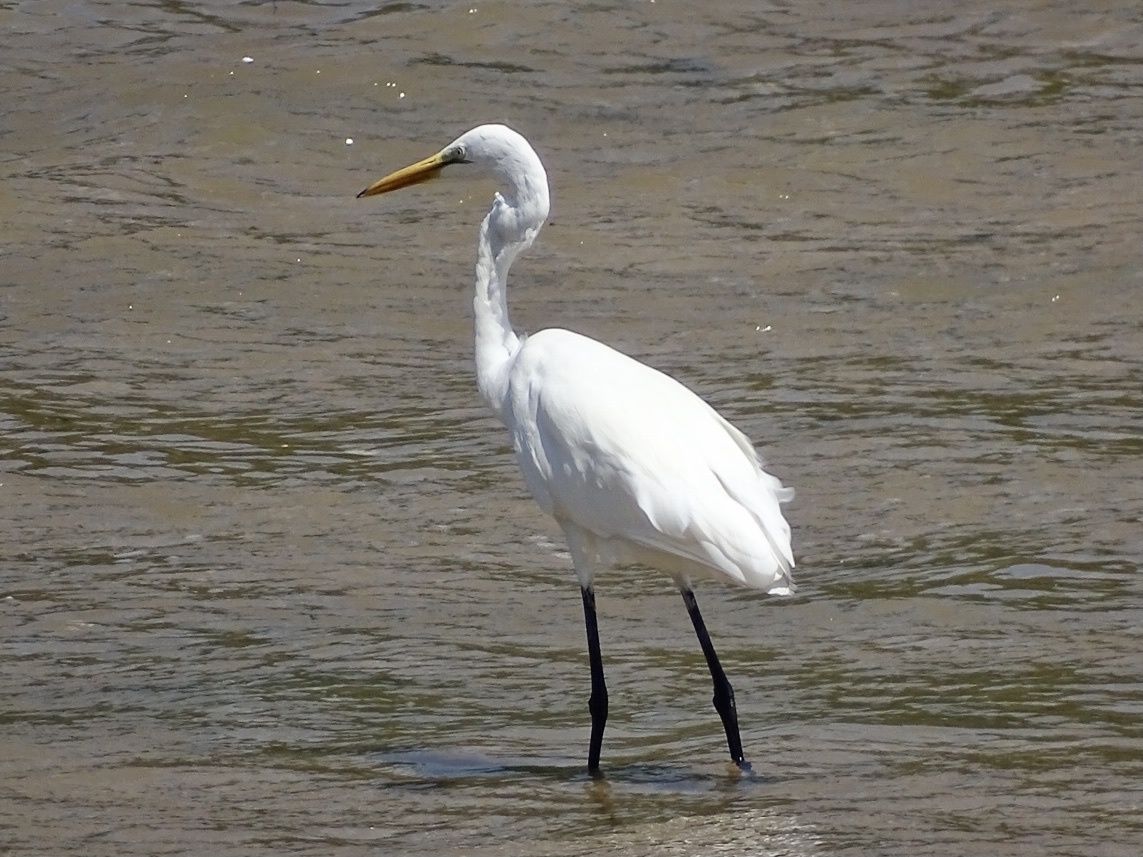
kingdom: Animalia
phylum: Chordata
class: Aves
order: Pelecaniformes
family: Ardeidae
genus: Ardea
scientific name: Ardea alba
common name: Great egret
